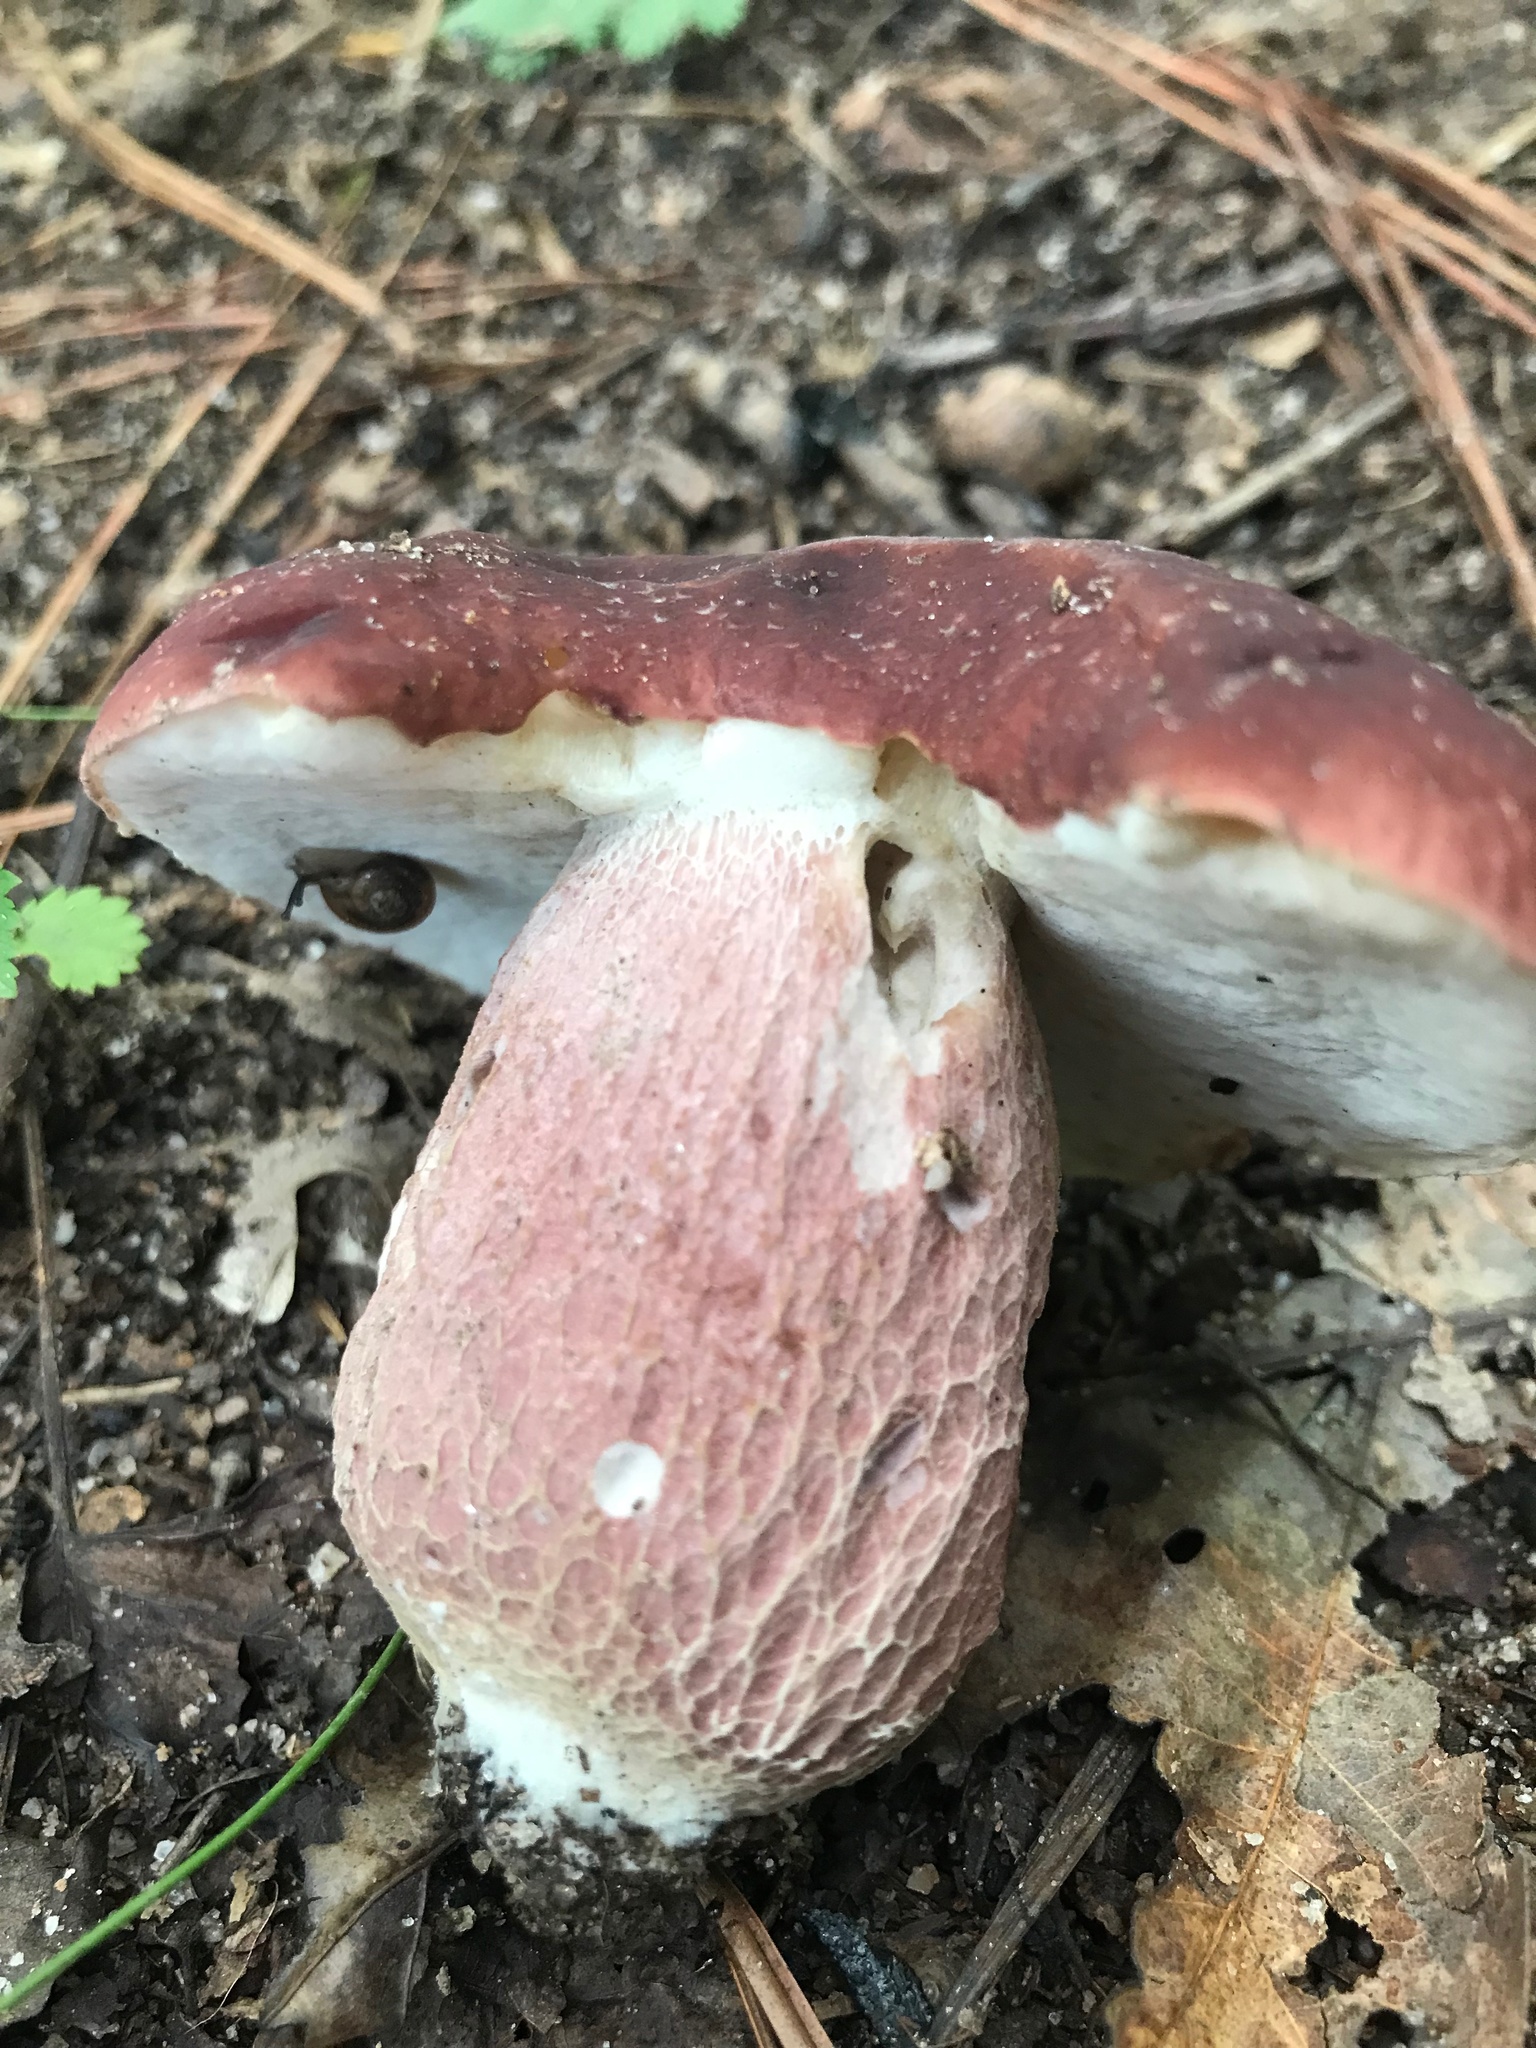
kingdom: Fungi
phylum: Basidiomycota
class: Agaricomycetes
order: Boletales
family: Boletaceae
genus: Xanthoconium
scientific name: Xanthoconium separans
